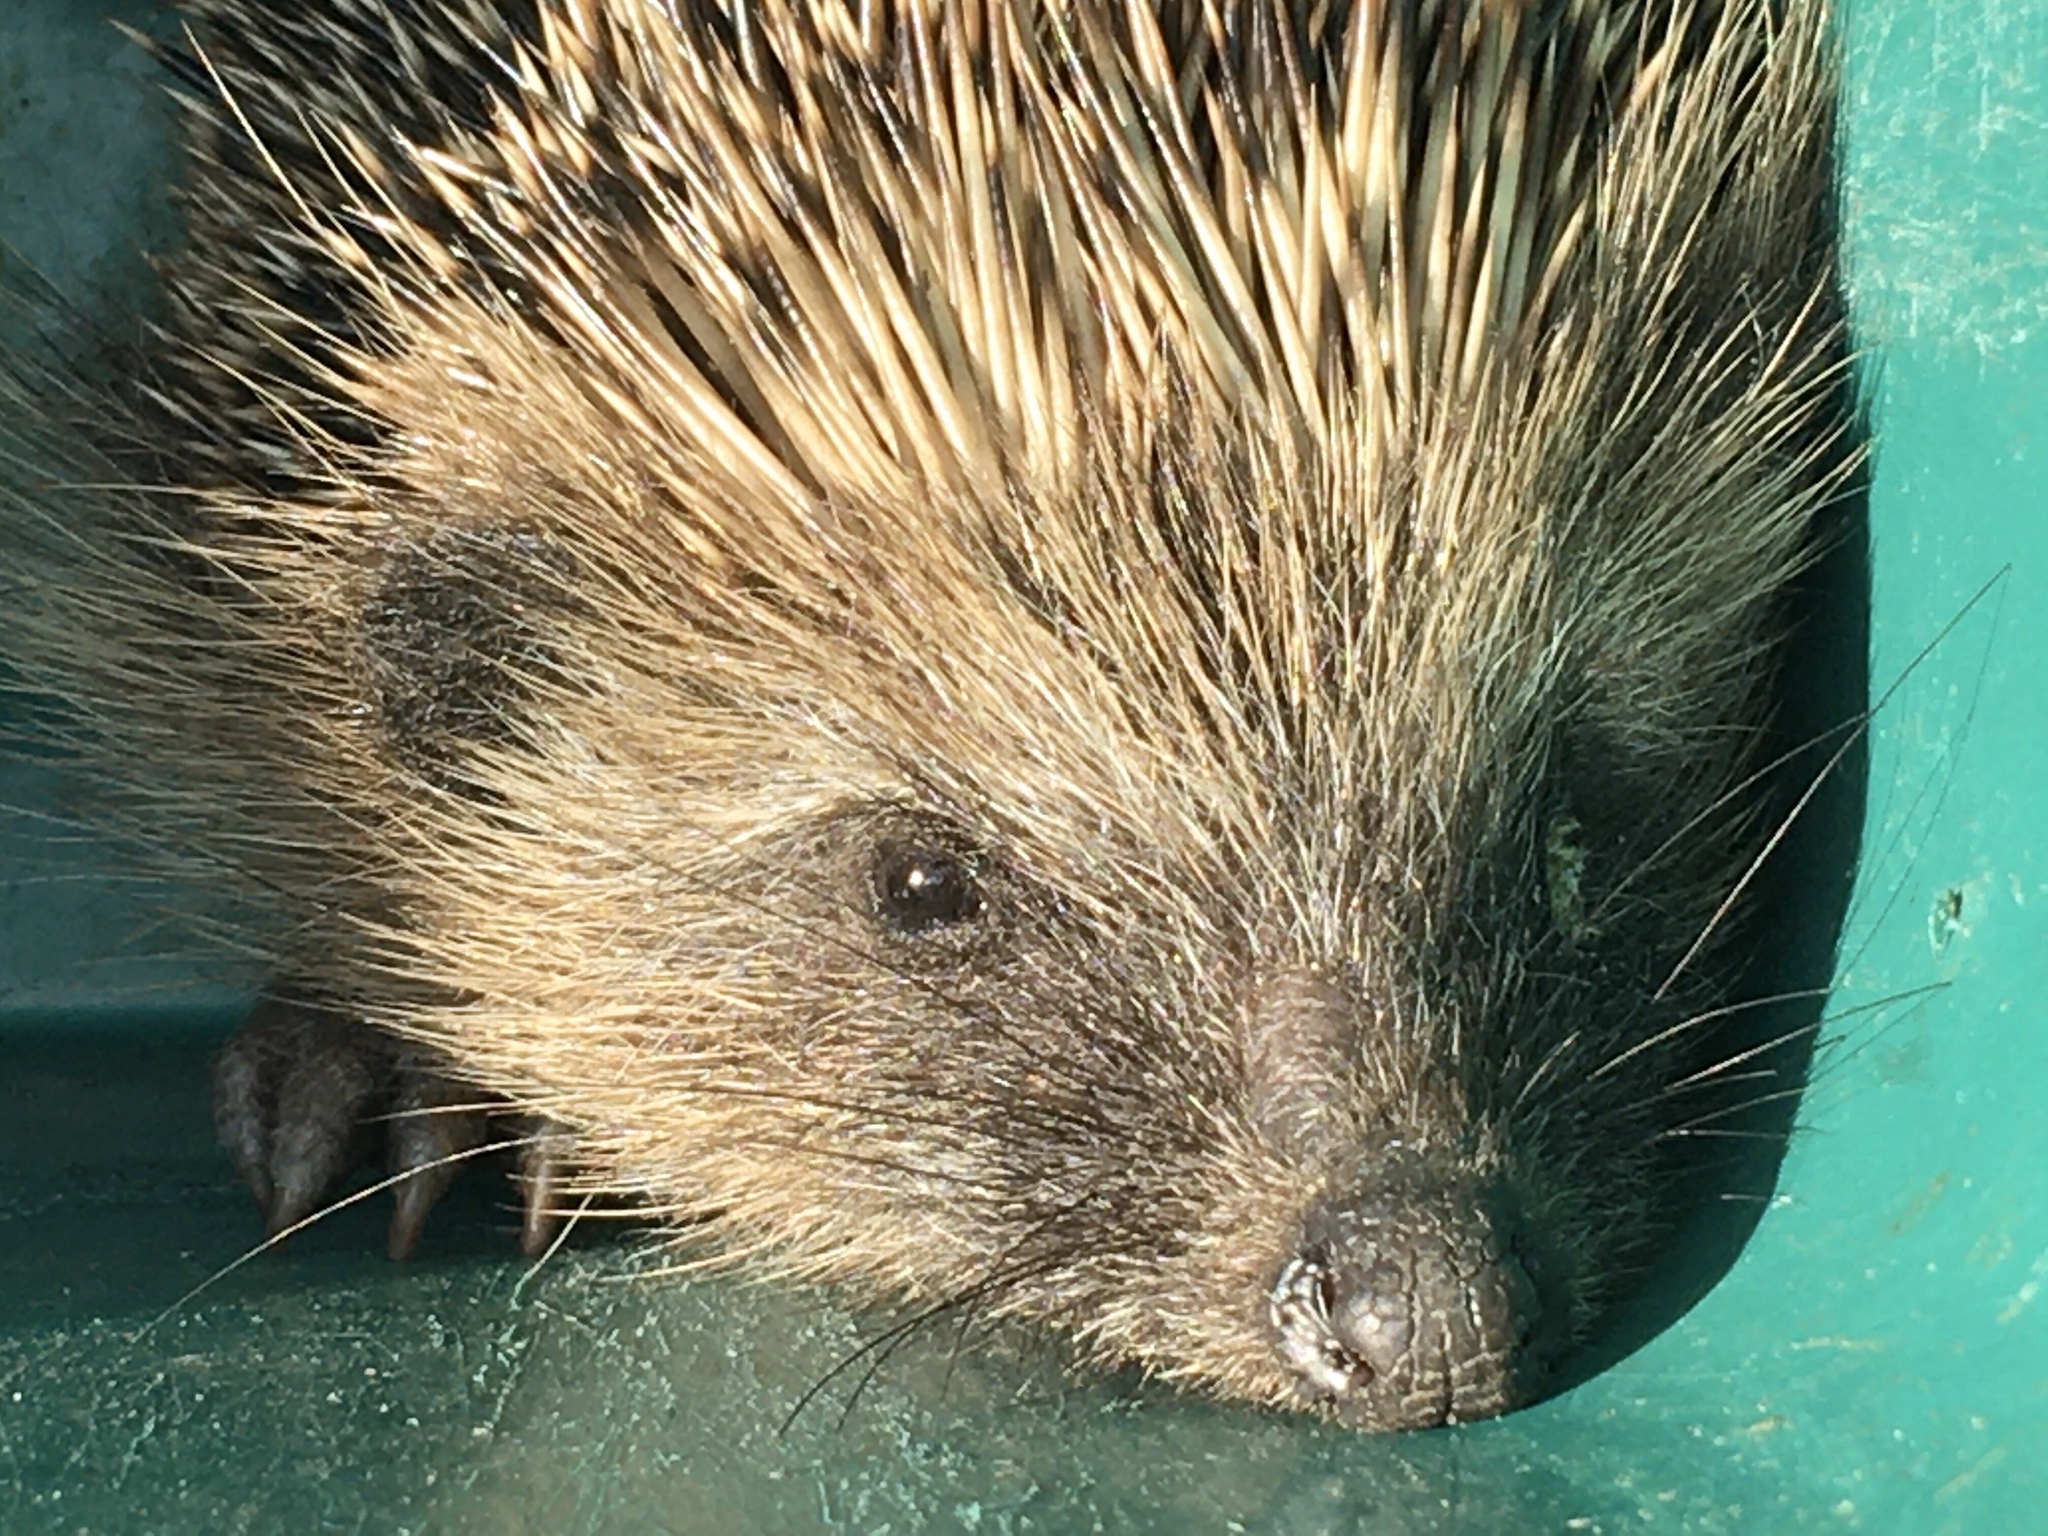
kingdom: Animalia
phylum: Chordata
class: Mammalia
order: Erinaceomorpha
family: Erinaceidae
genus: Erinaceus
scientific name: Erinaceus europaeus
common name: West european hedgehog
